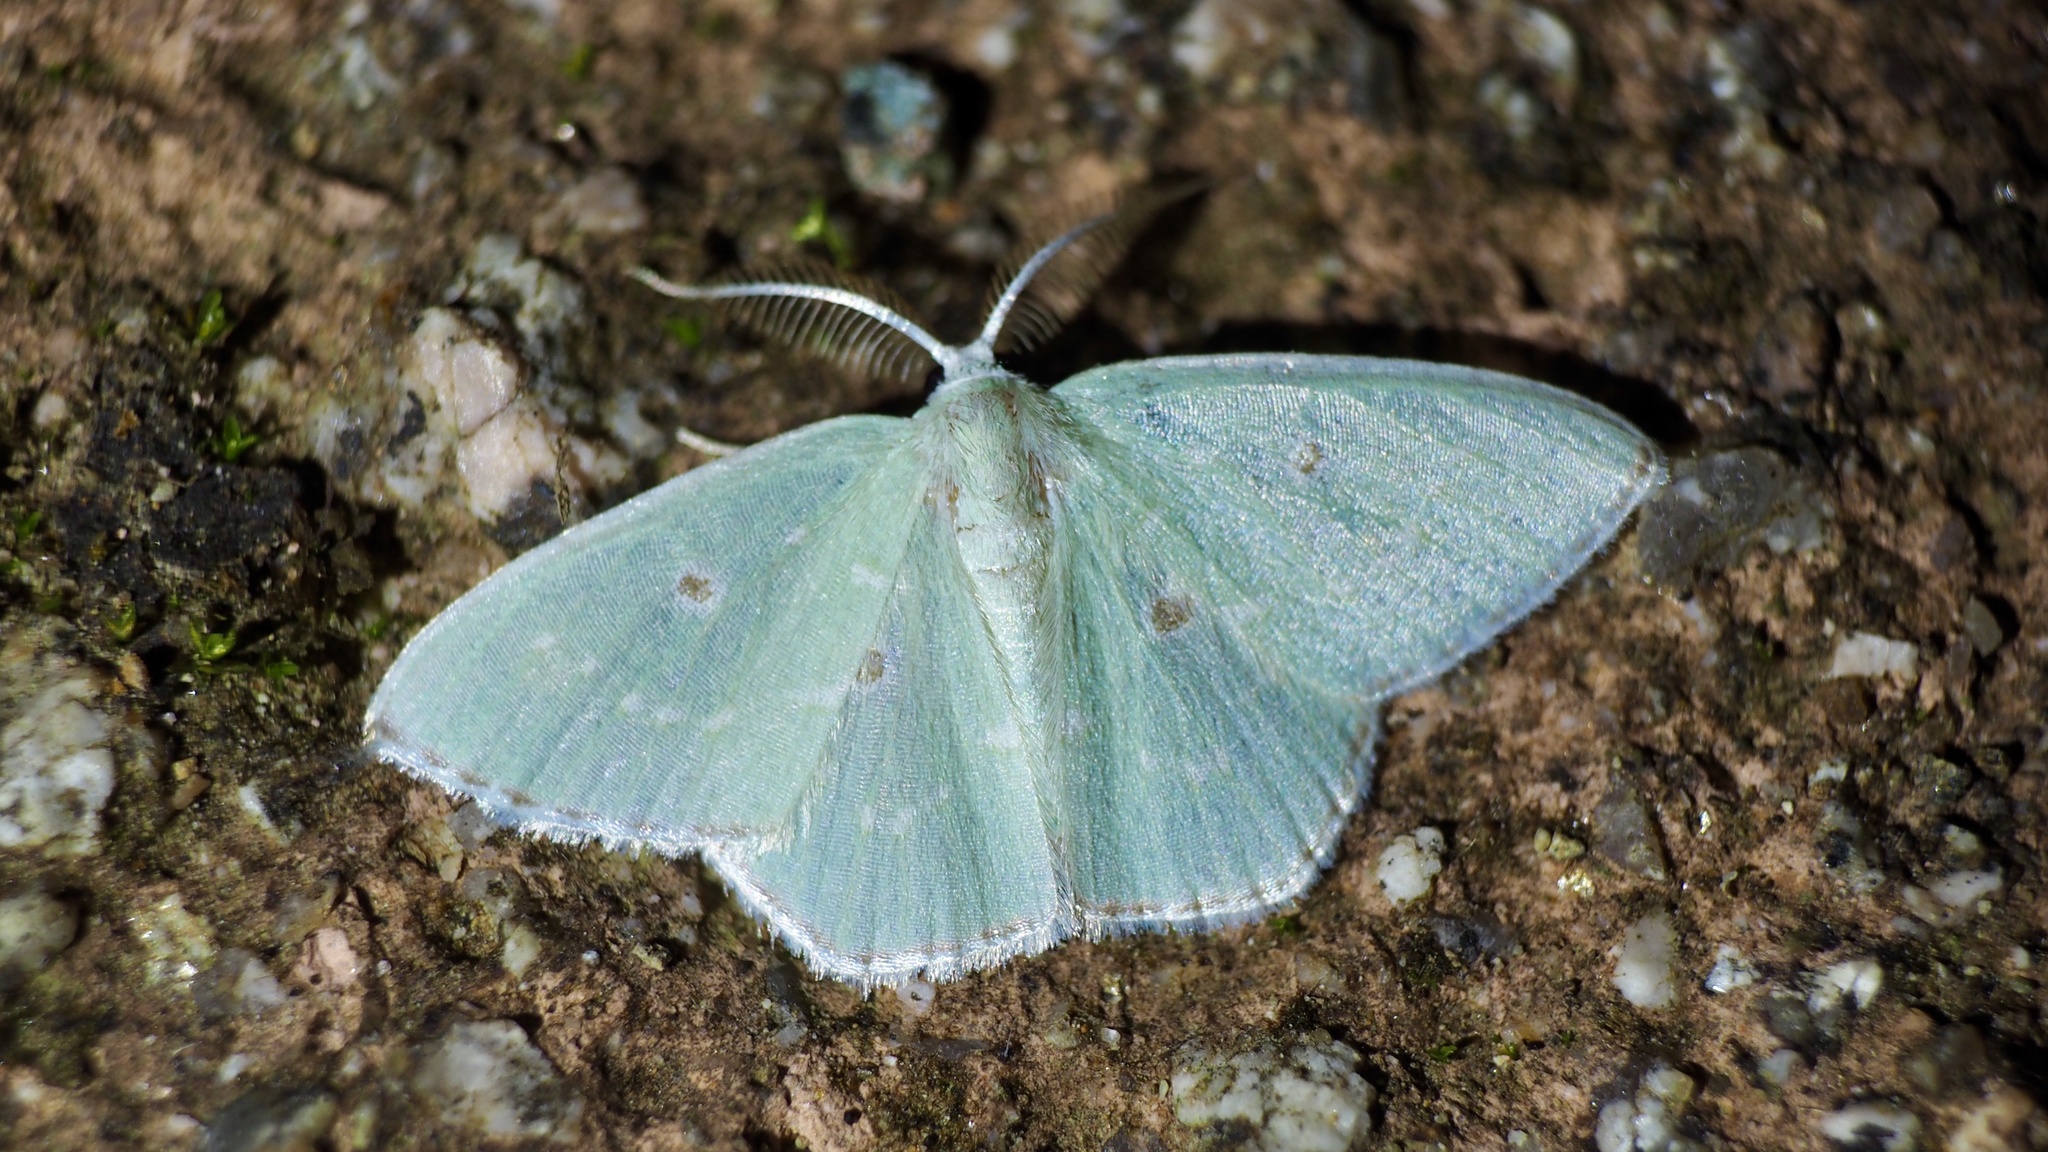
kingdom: Animalia
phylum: Arthropoda
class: Insecta
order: Lepidoptera
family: Geometridae
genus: Comostola
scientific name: Comostola subtiliaria
